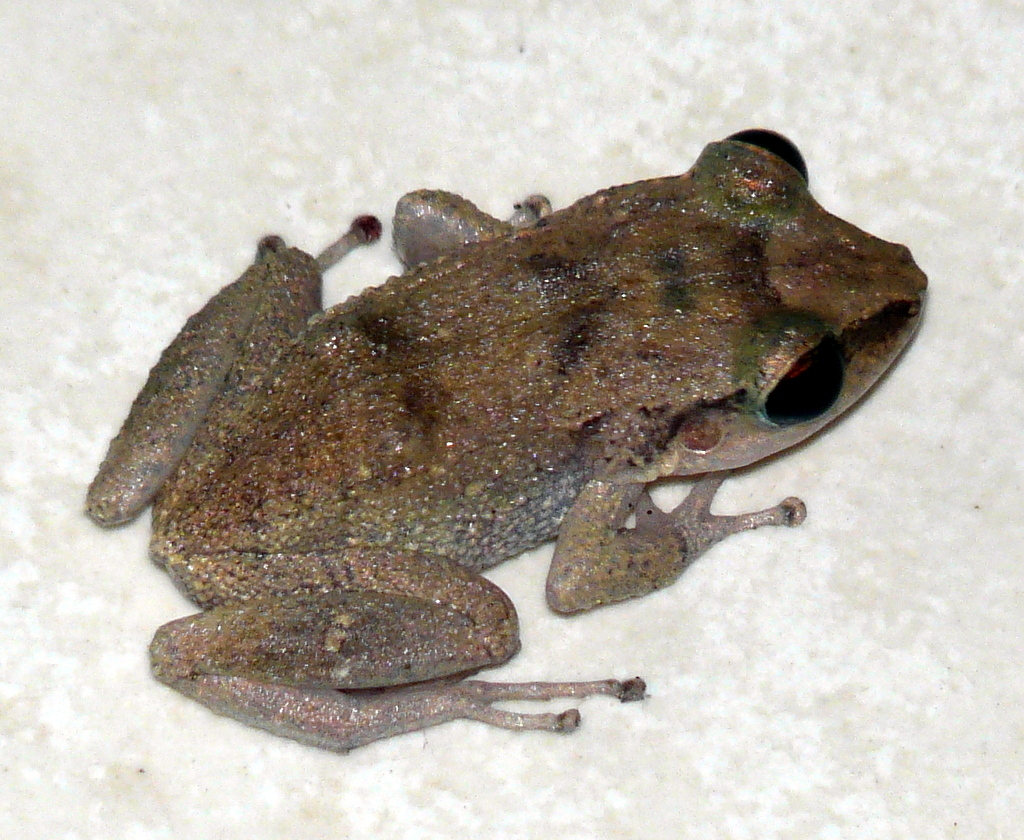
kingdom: Animalia
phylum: Chordata
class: Amphibia
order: Anura
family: Eleutherodactylidae
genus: Eleutherodactylus
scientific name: Eleutherodactylus gossei
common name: Jamaican forest frog
